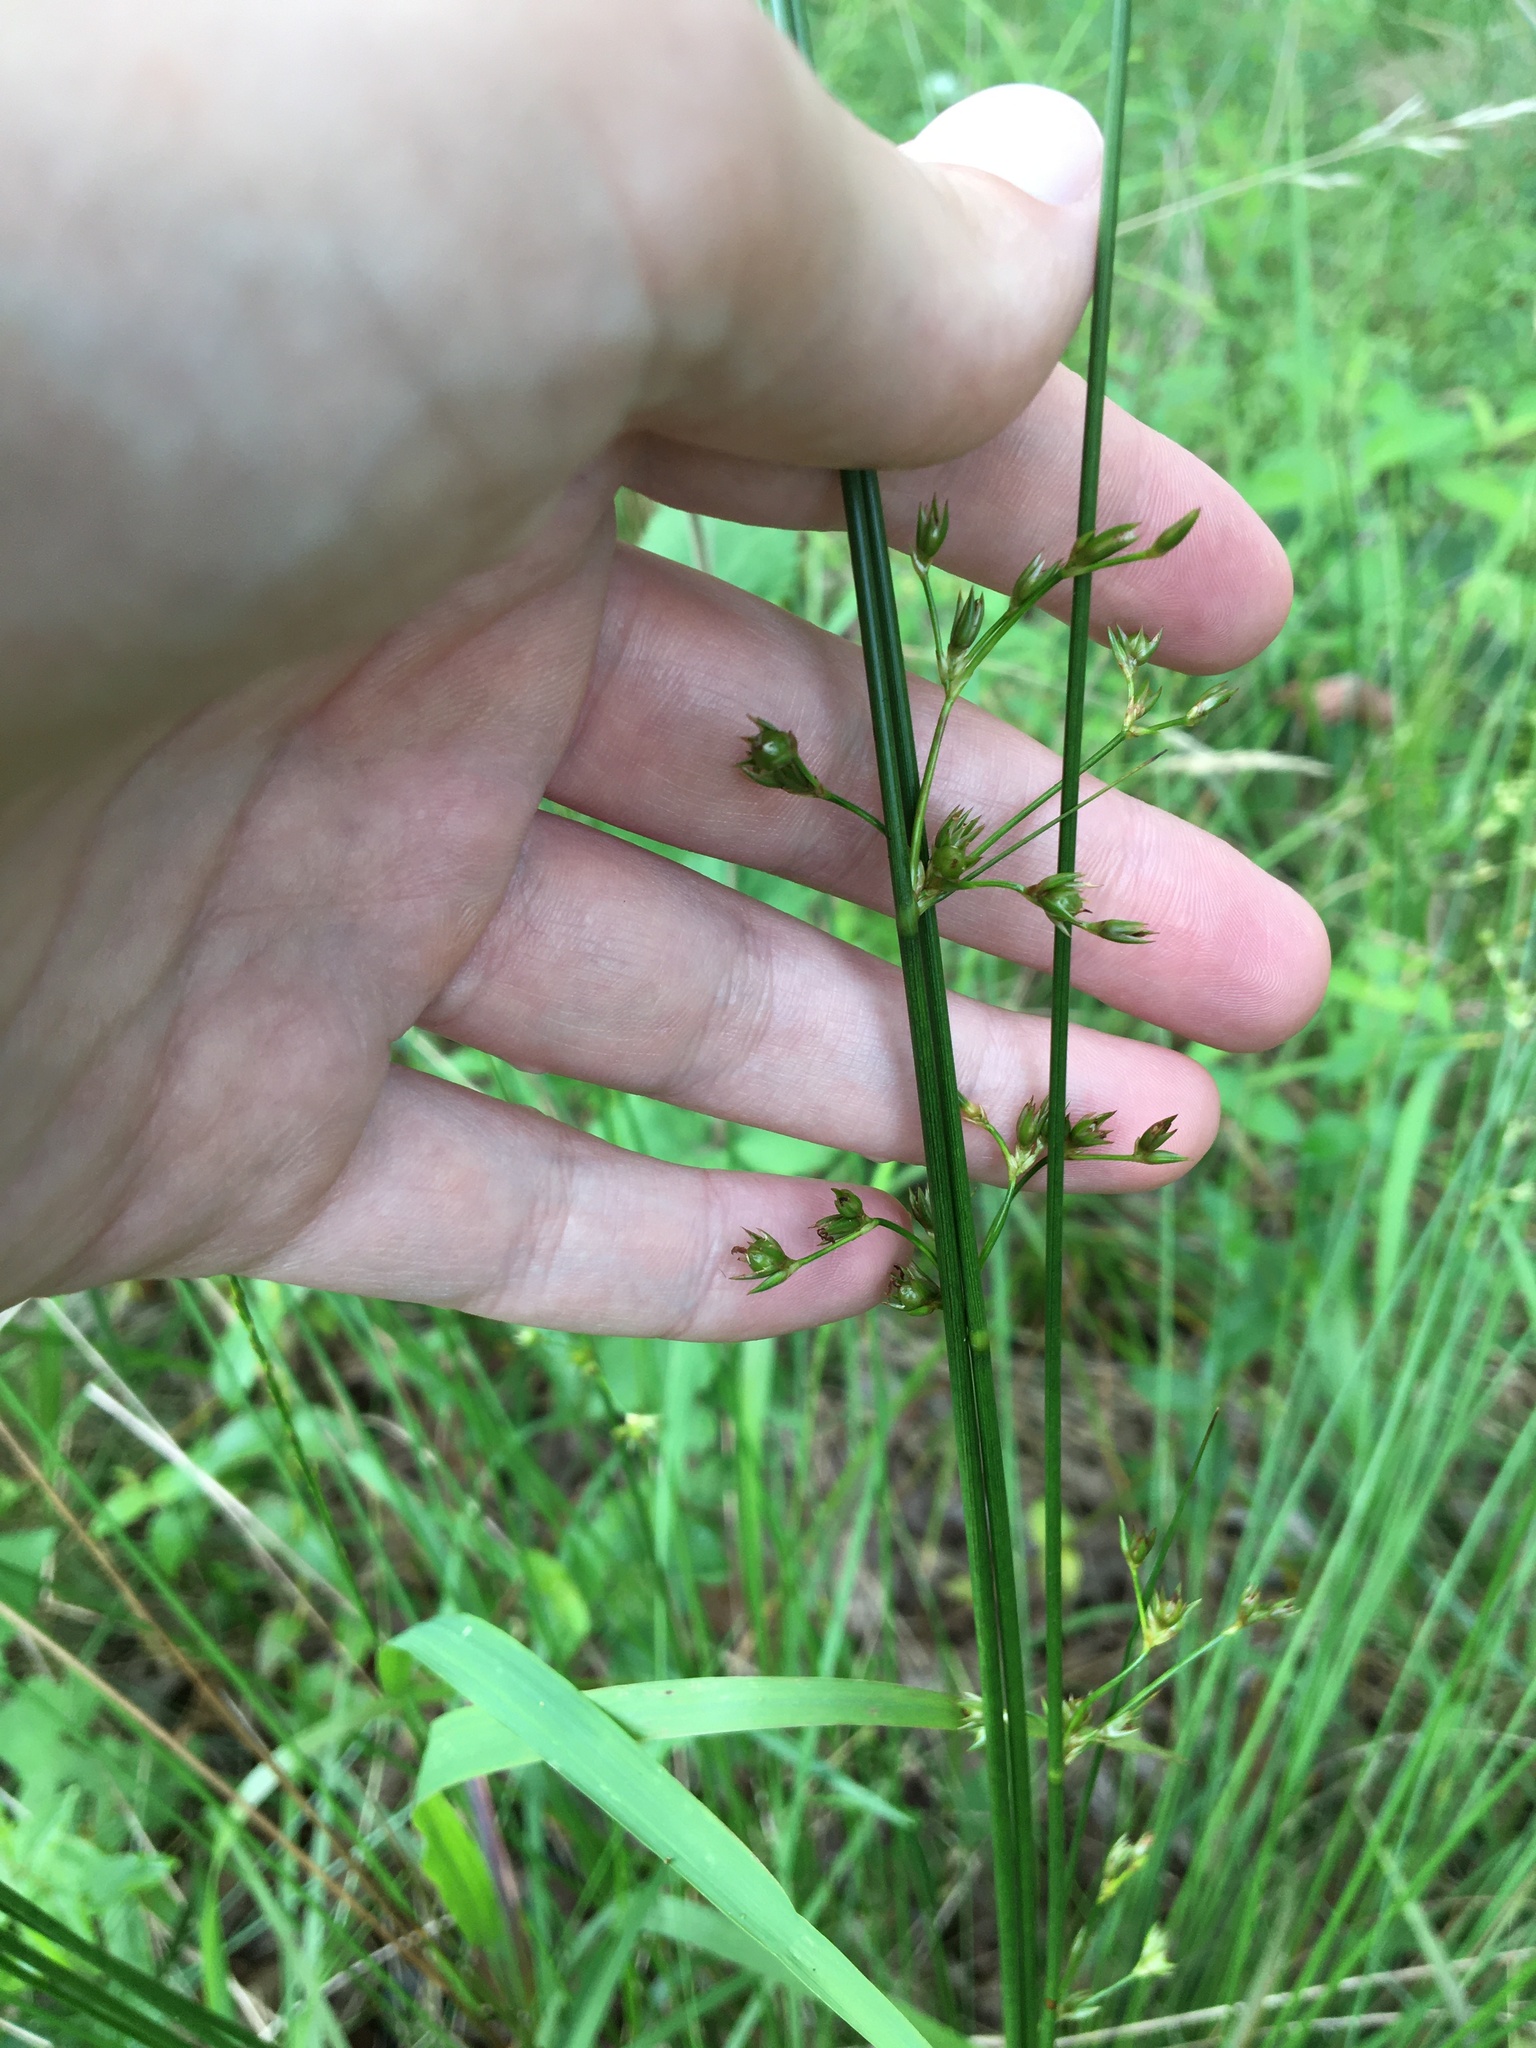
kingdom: Plantae
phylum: Tracheophyta
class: Liliopsida
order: Poales
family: Juncaceae
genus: Juncus
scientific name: Juncus coriaceus
